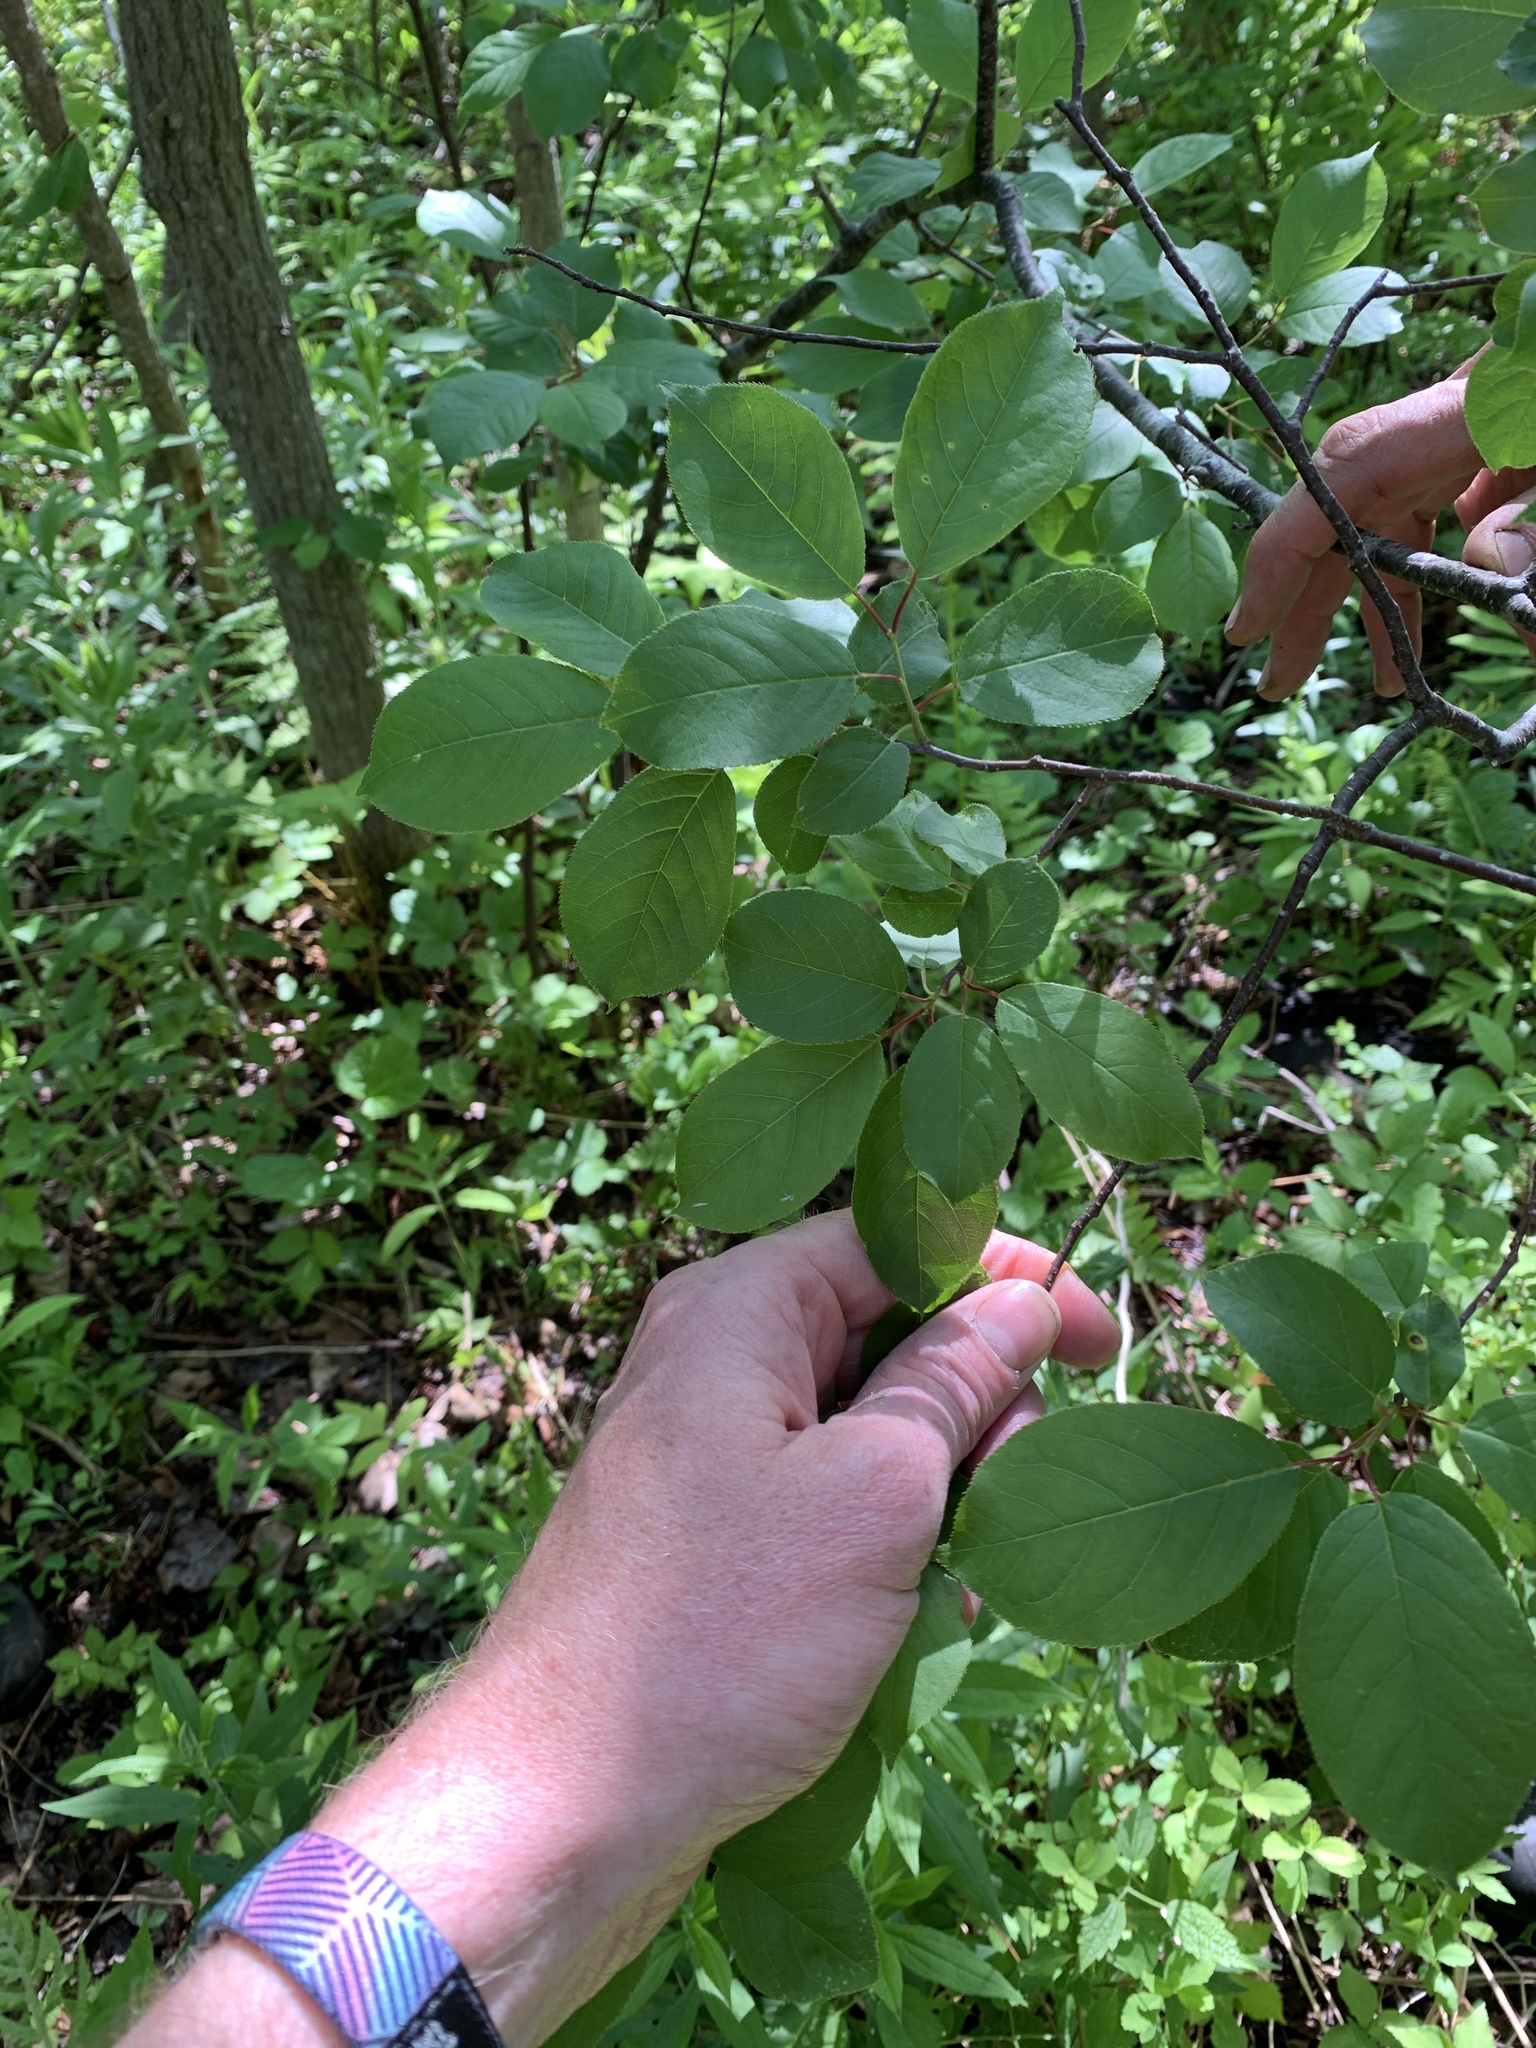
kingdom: Plantae
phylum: Tracheophyta
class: Magnoliopsida
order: Rosales
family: Rosaceae
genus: Prunus
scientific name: Prunus virginiana
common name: Chokecherry
